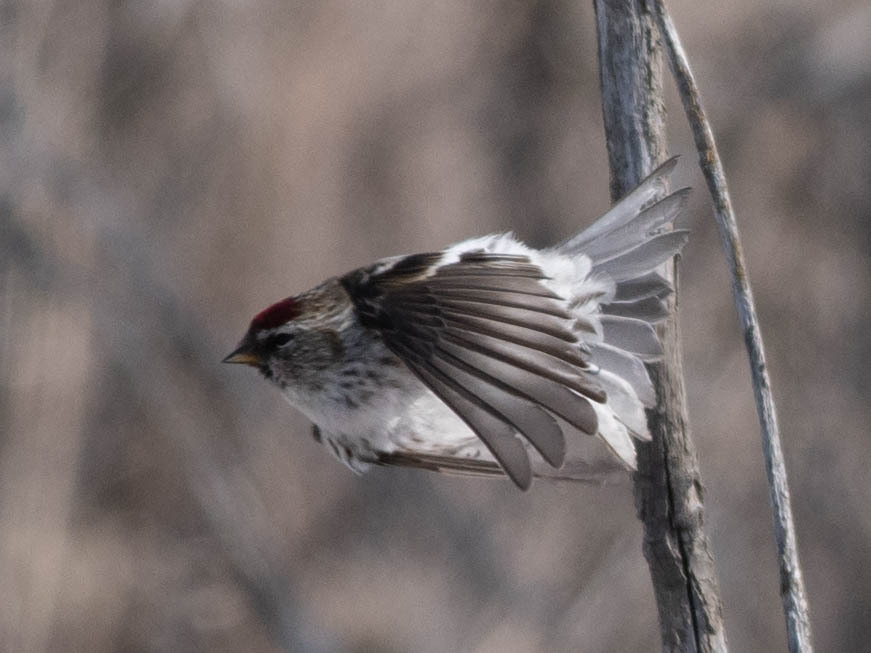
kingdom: Animalia
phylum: Chordata
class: Aves
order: Passeriformes
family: Fringillidae
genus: Acanthis
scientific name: Acanthis flammea
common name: Common redpoll
